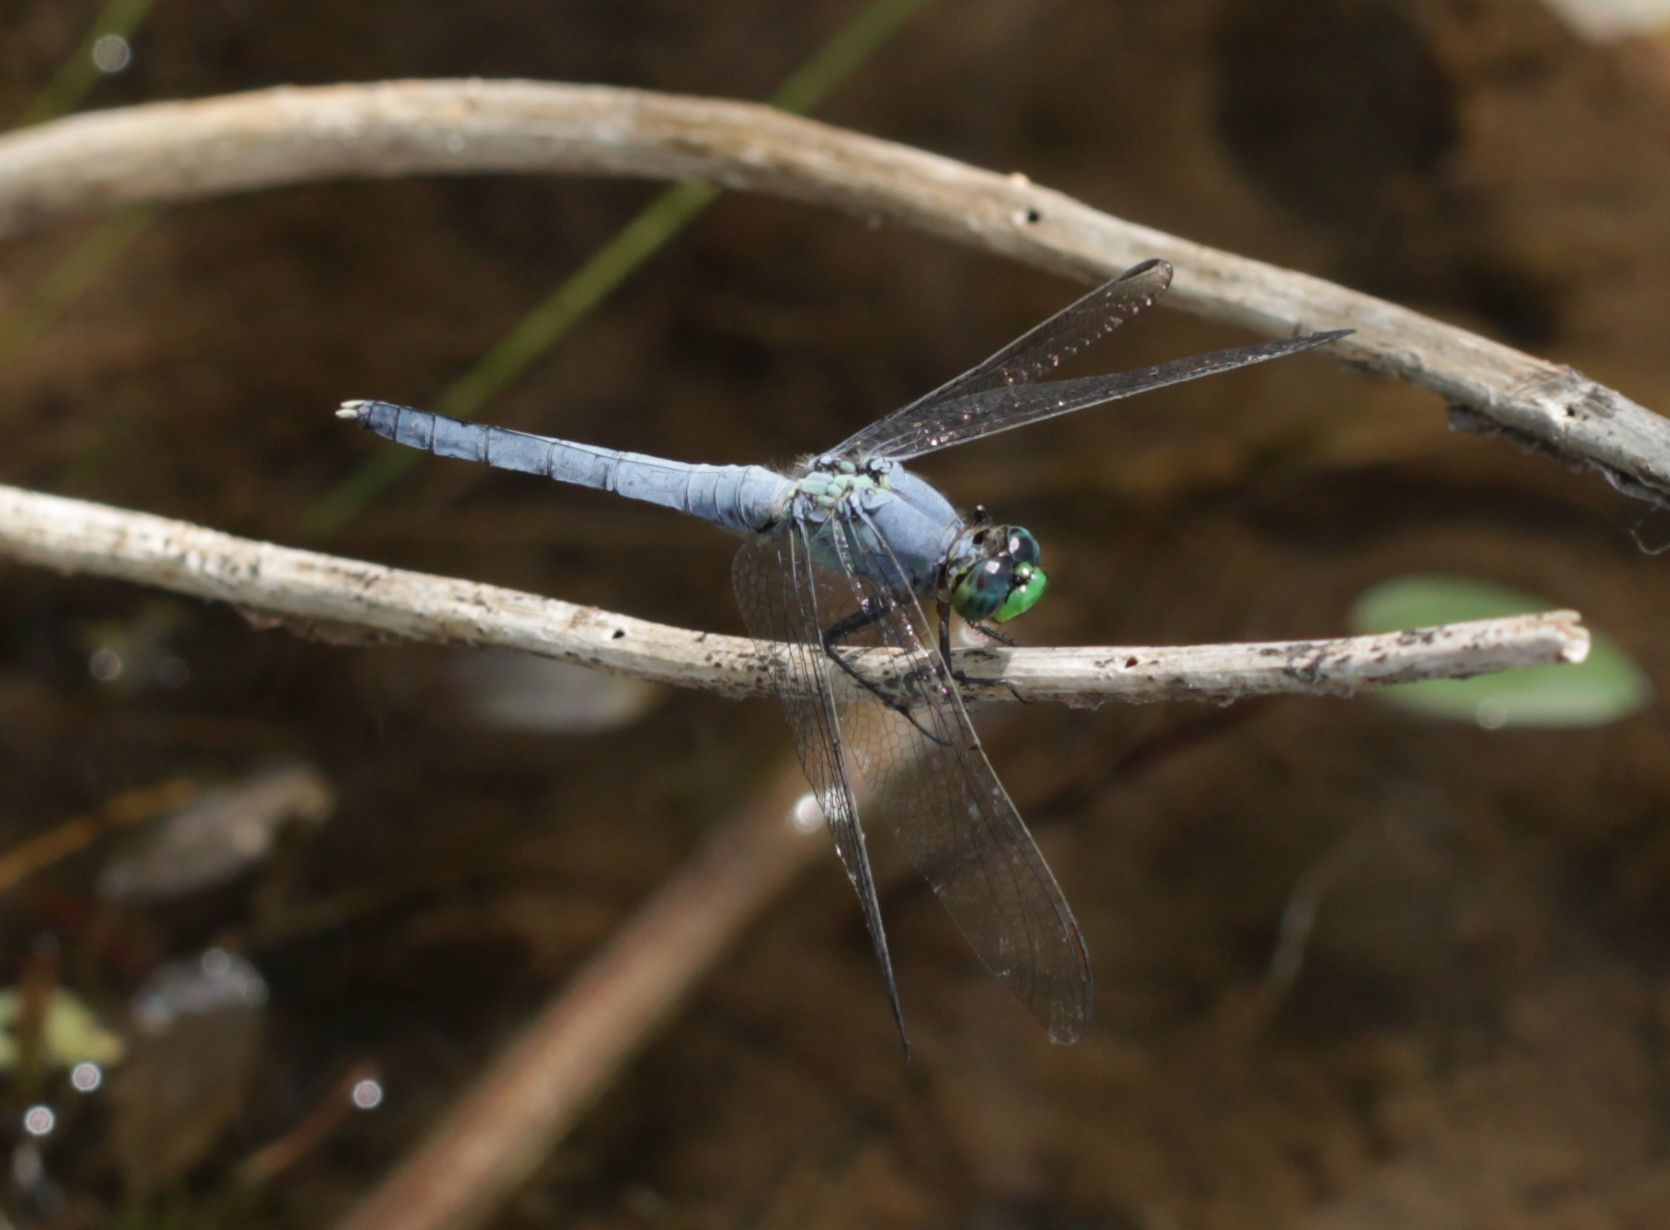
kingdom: Animalia
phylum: Arthropoda
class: Insecta
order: Odonata
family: Libellulidae
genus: Erythemis
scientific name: Erythemis simplicicollis
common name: Eastern pondhawk
